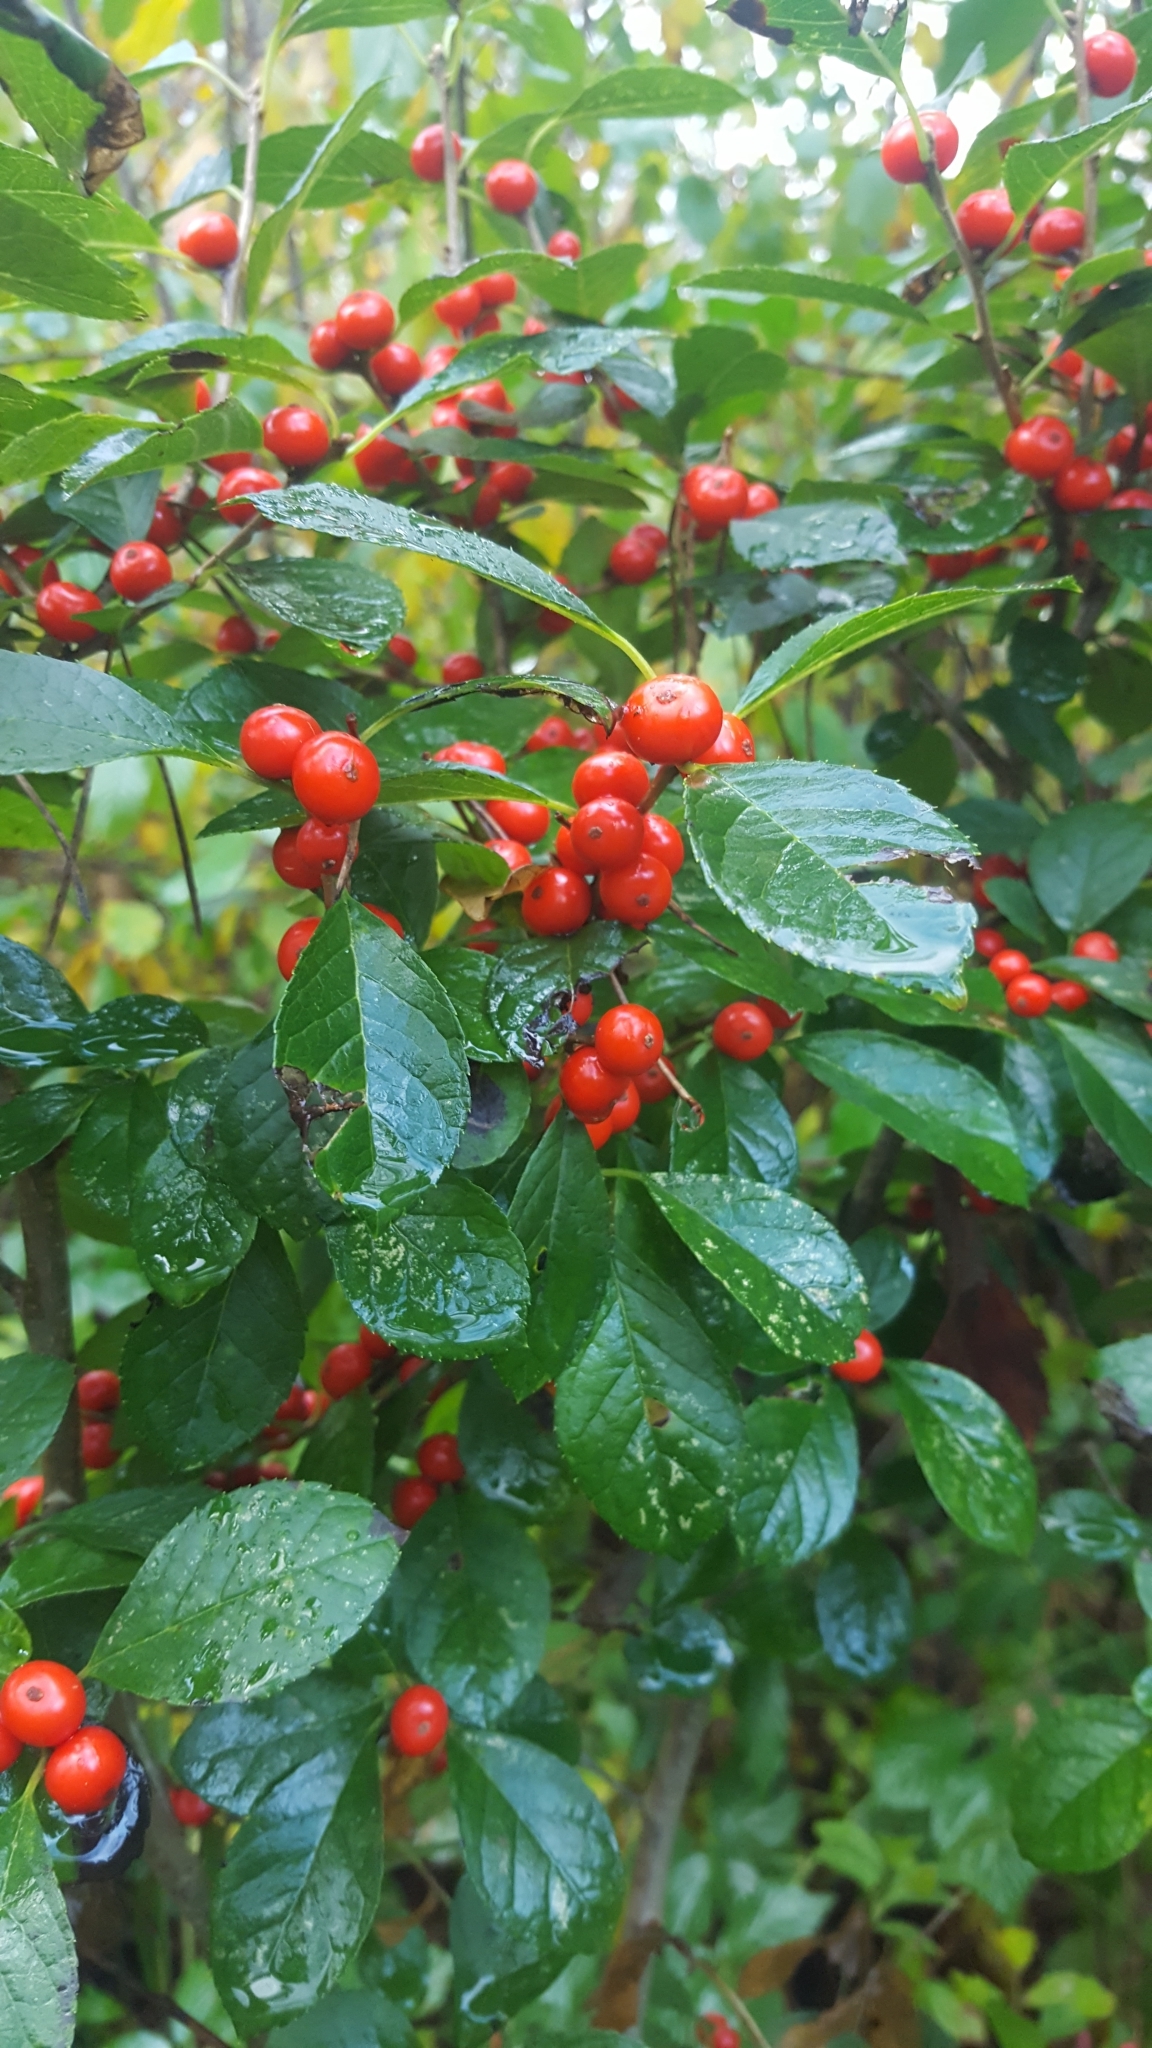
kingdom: Plantae
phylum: Tracheophyta
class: Magnoliopsida
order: Aquifoliales
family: Aquifoliaceae
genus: Ilex
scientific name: Ilex verticillata
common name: Virginia winterberry
